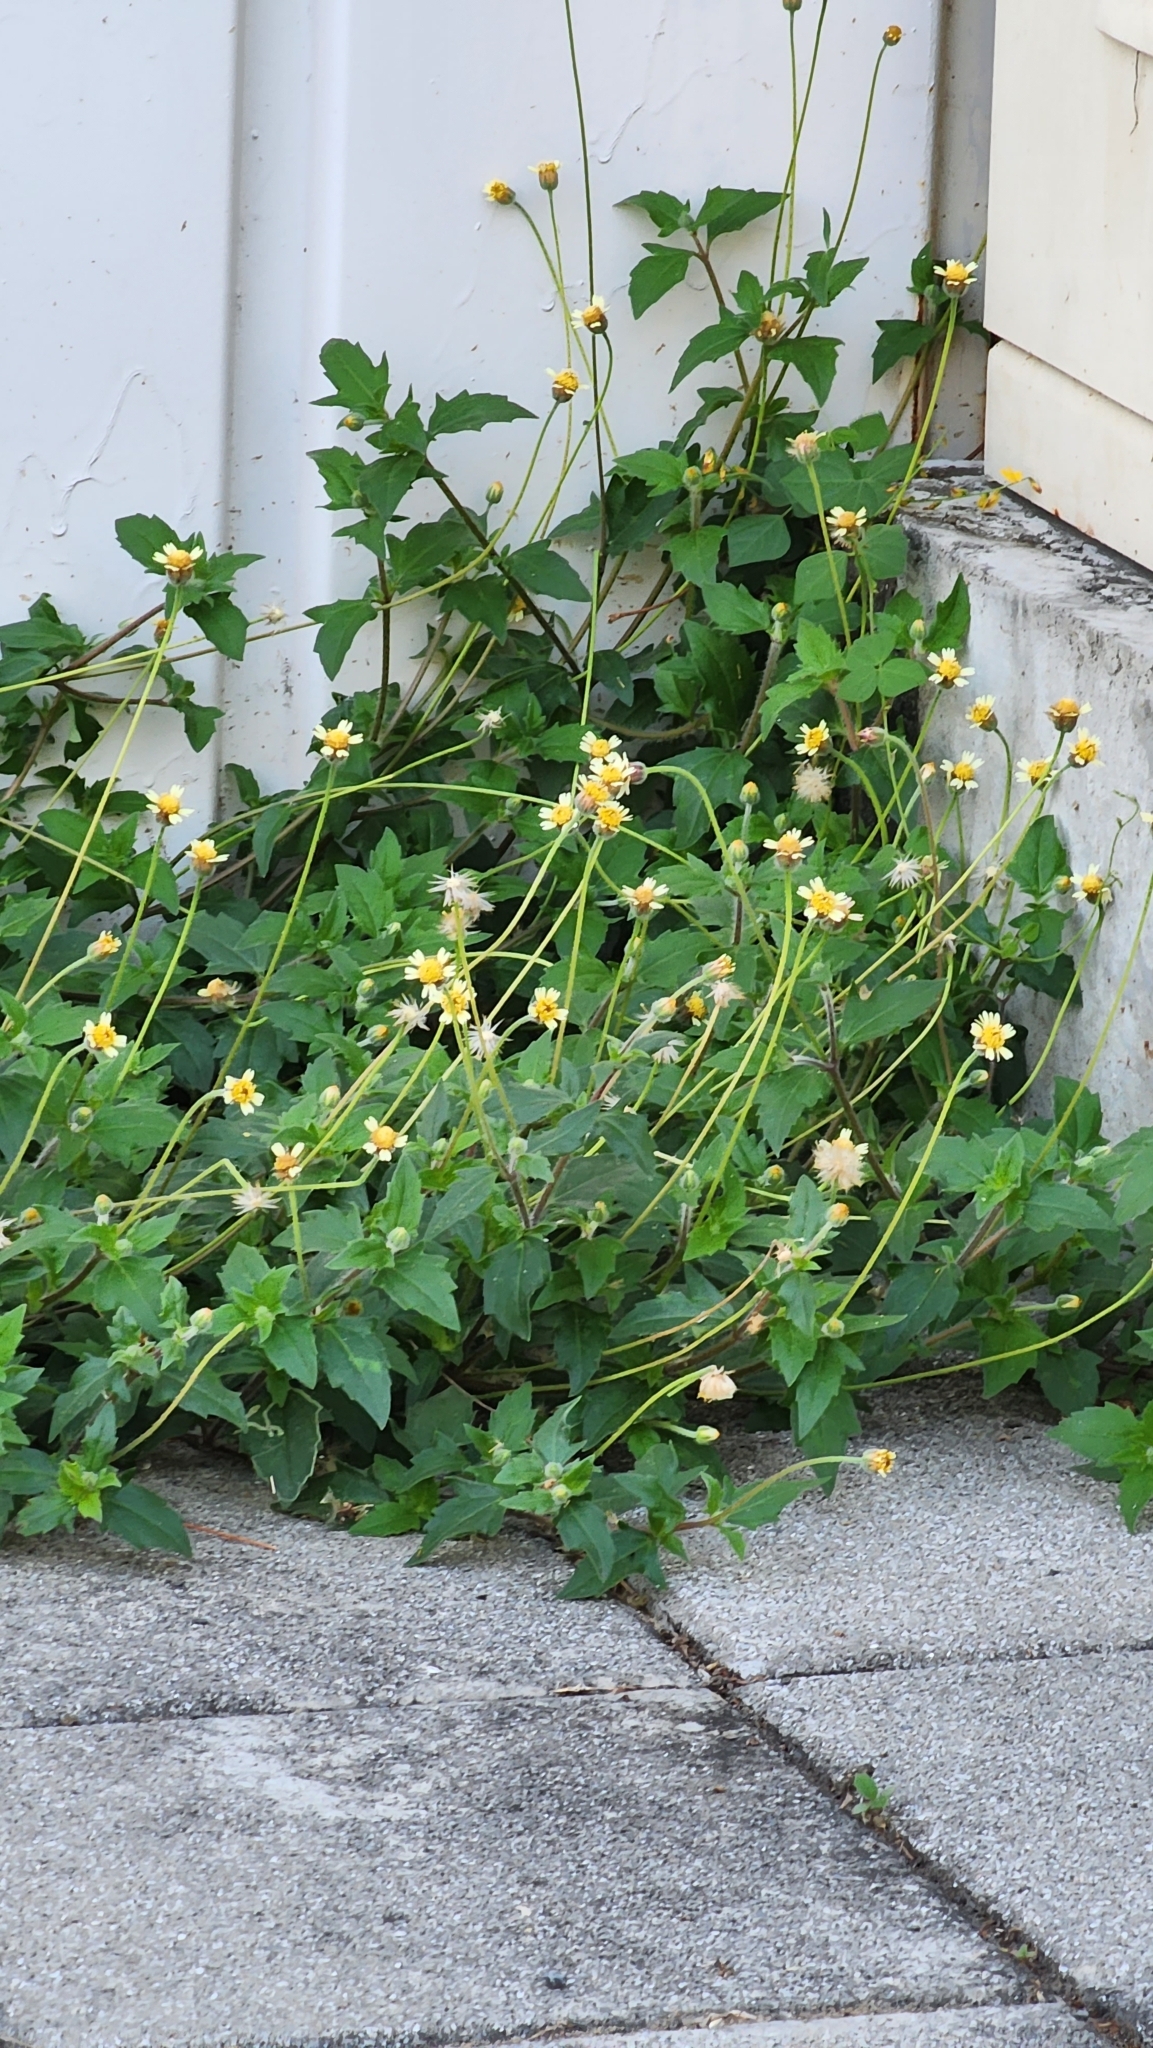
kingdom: Plantae
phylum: Tracheophyta
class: Magnoliopsida
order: Asterales
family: Asteraceae
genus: Tridax
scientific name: Tridax procumbens
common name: Coatbuttons
